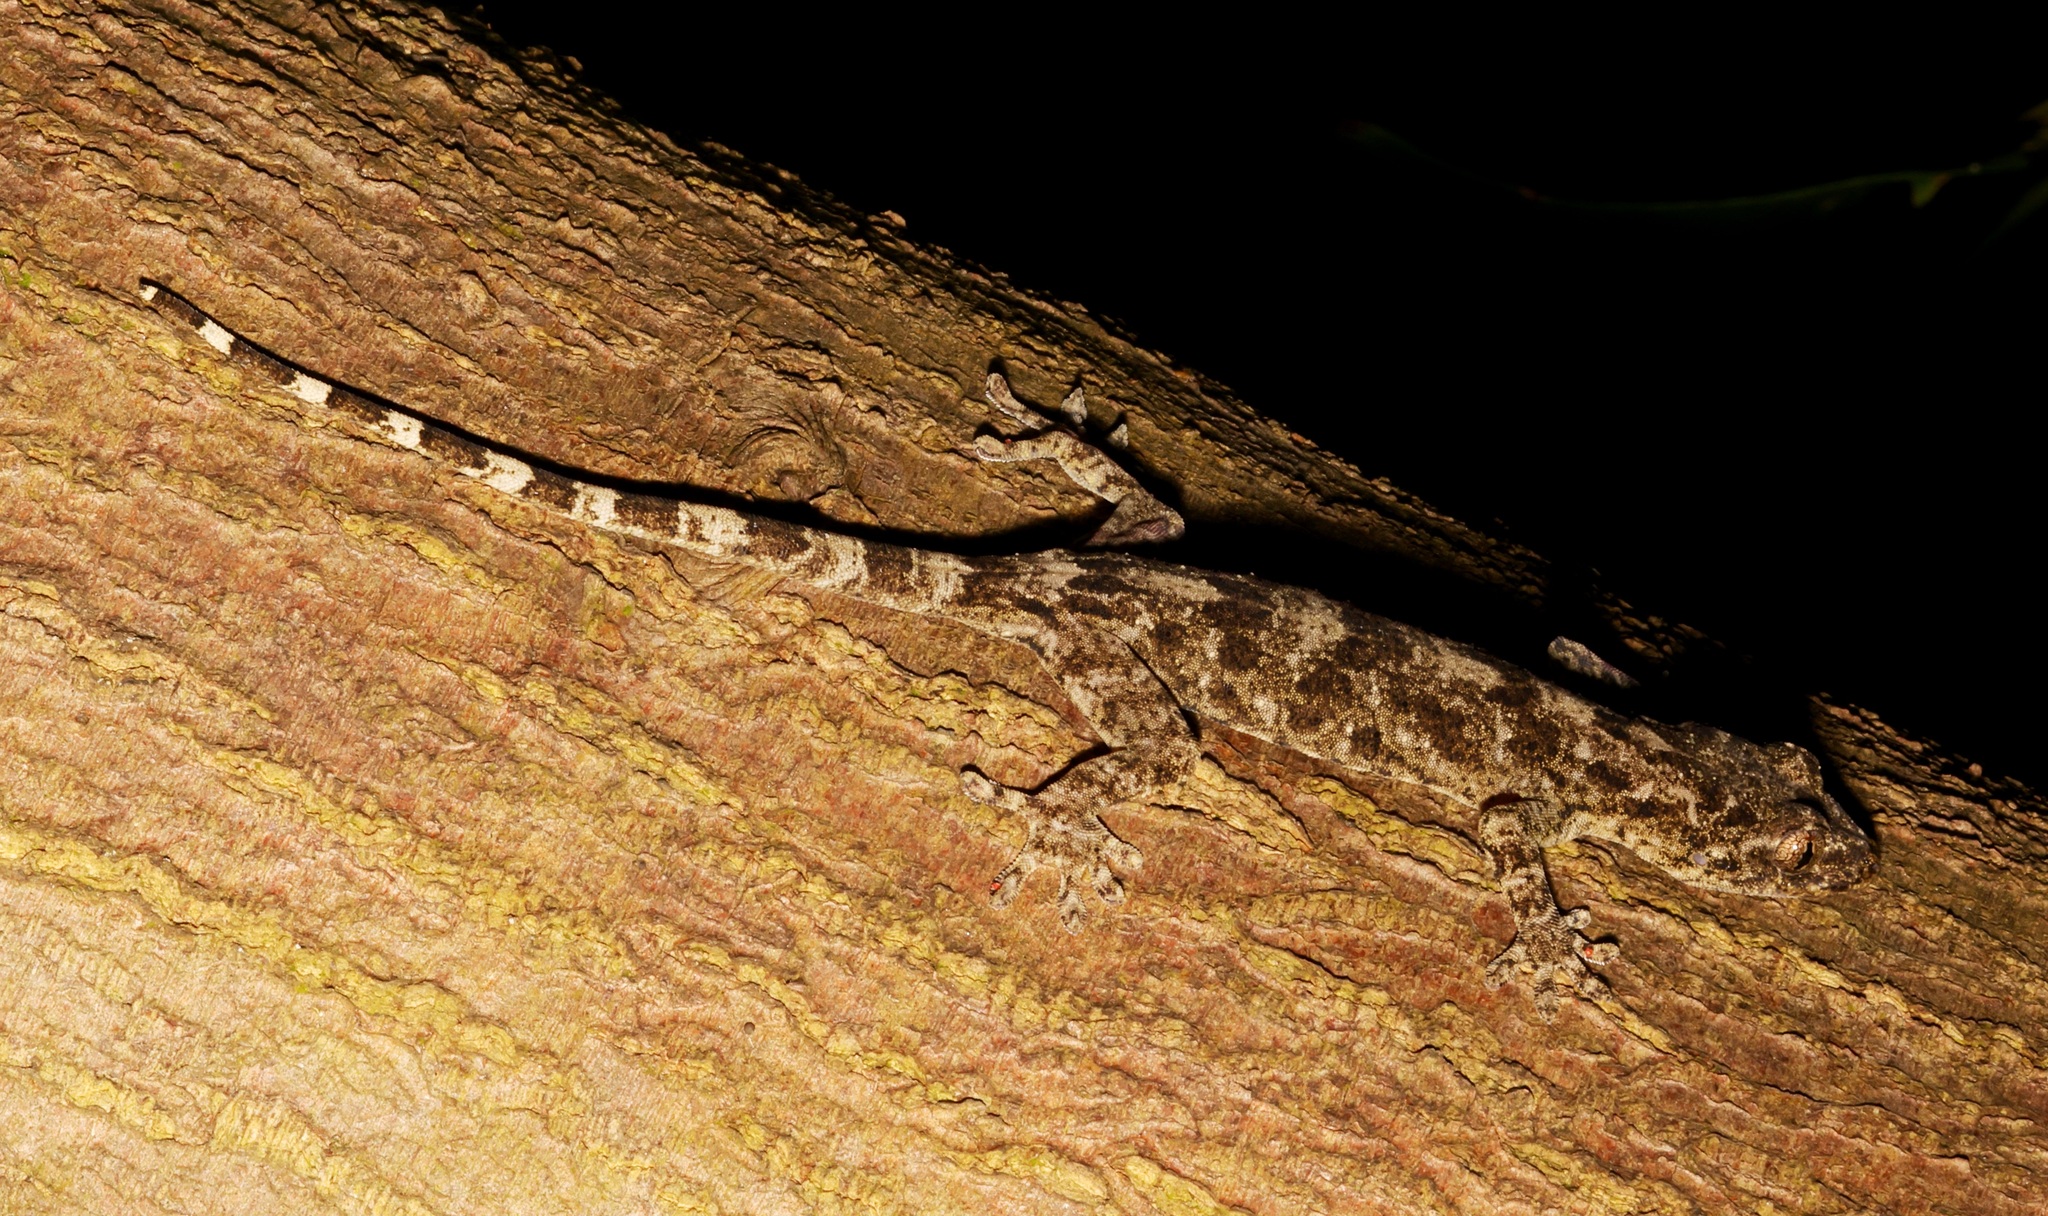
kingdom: Animalia
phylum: Chordata
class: Squamata
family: Gekkonidae
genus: Gekko
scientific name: Gekko chinensis
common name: Gray's chinese gecko
